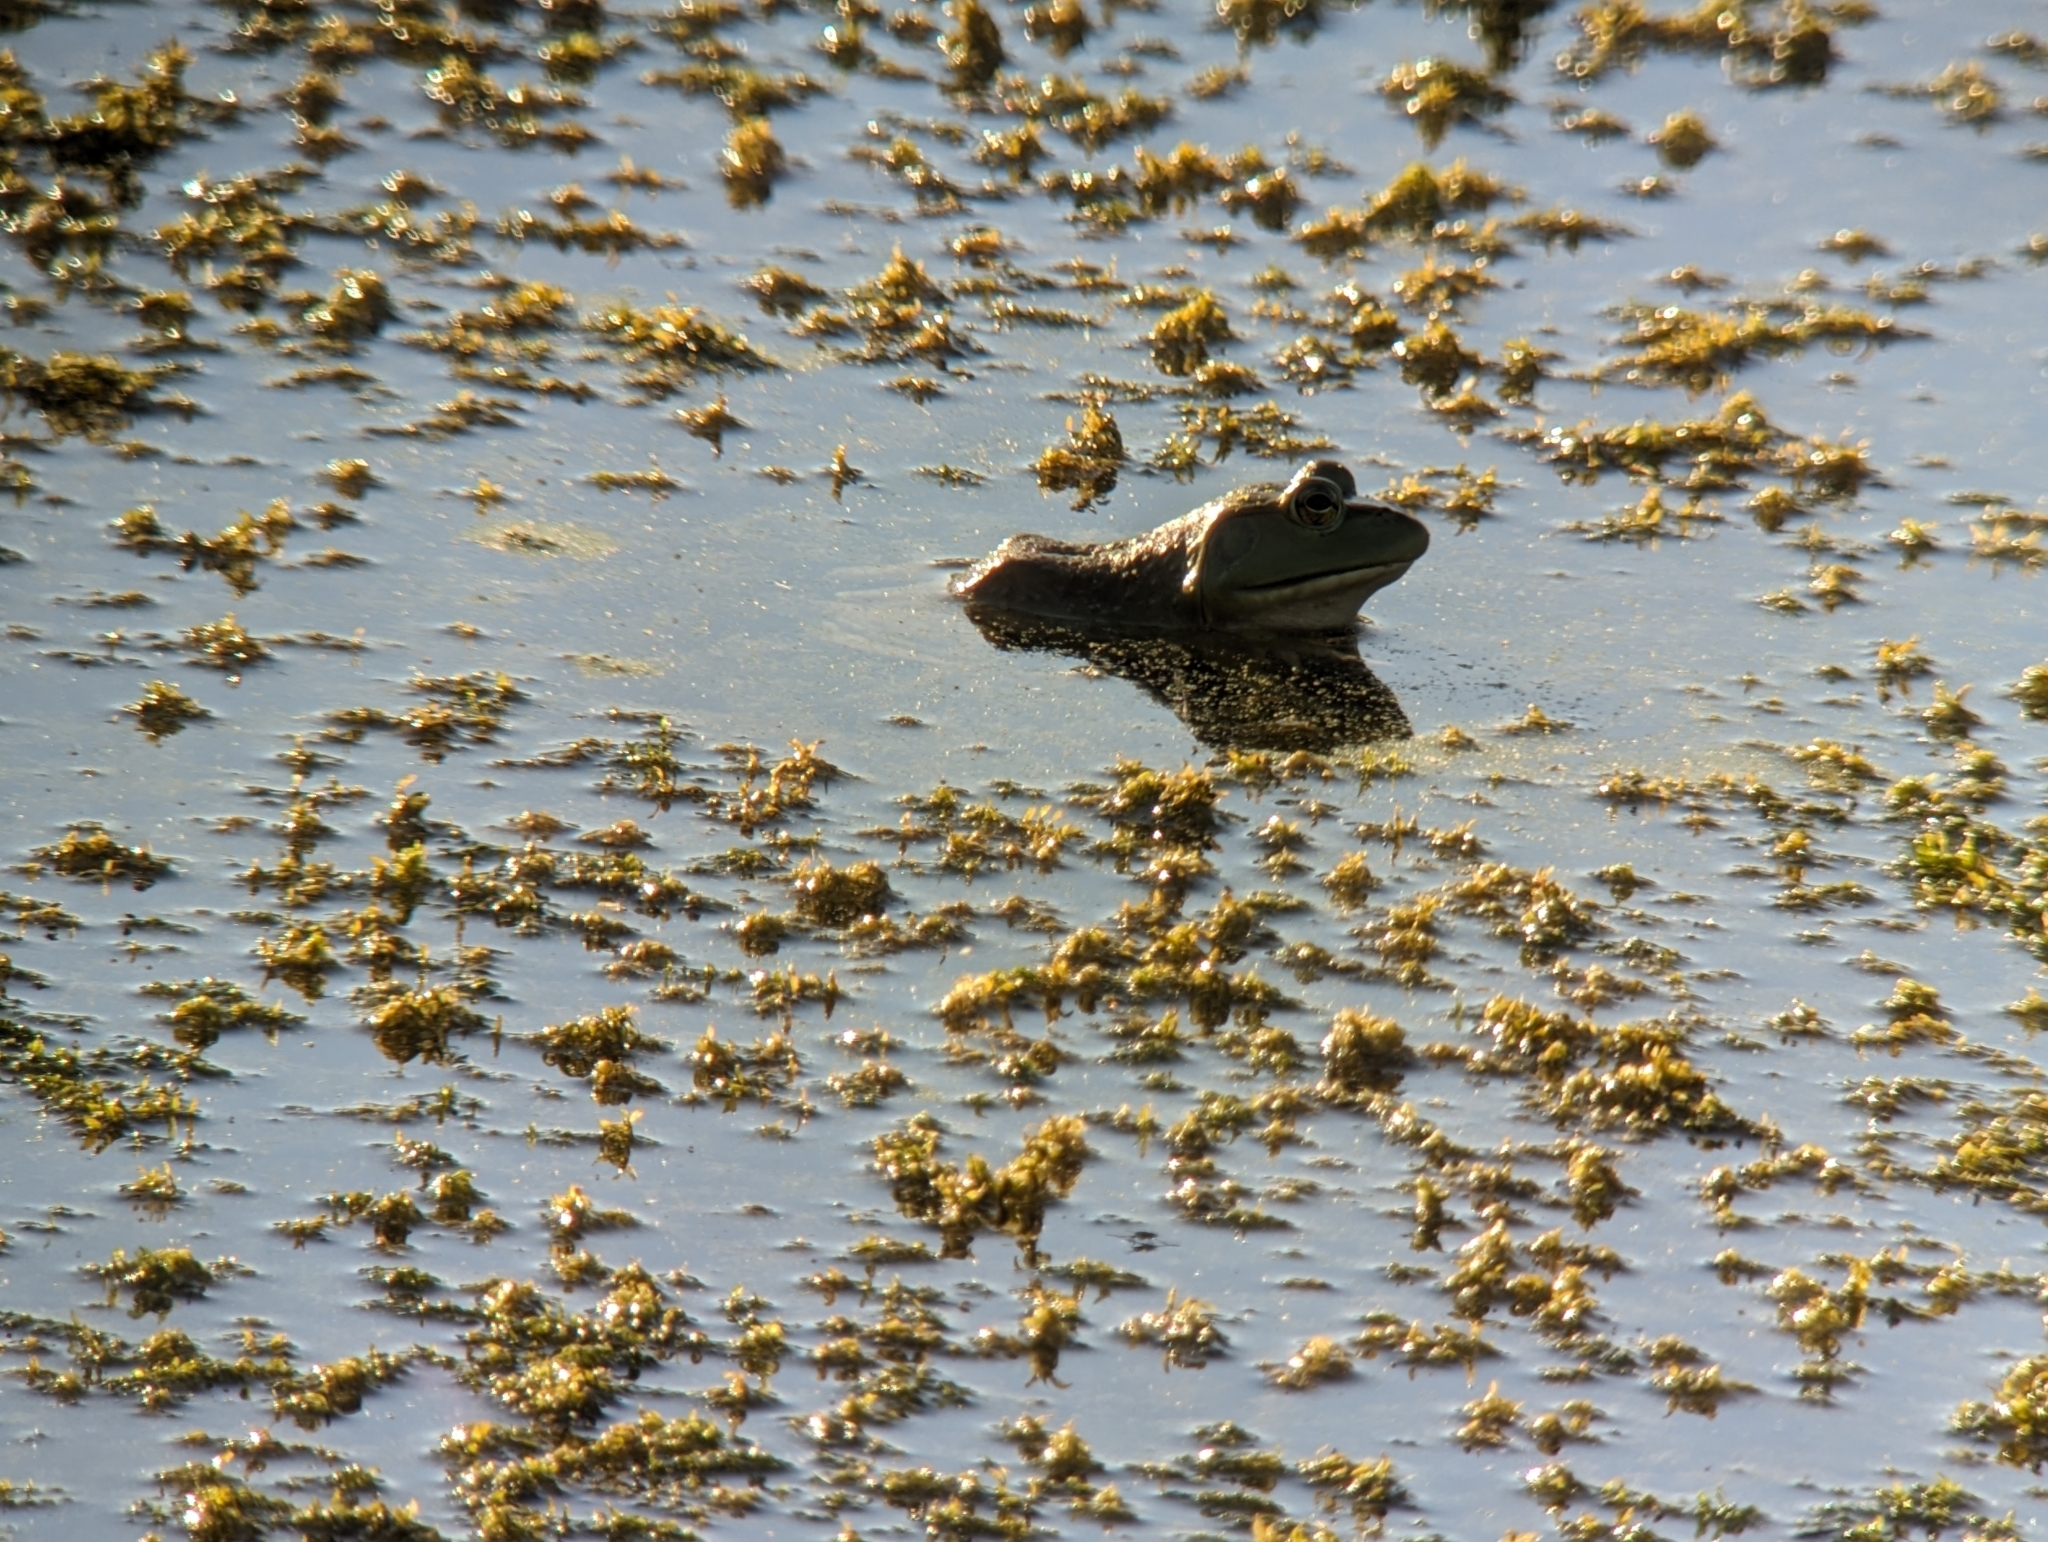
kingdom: Animalia
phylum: Chordata
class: Amphibia
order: Anura
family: Ranidae
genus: Lithobates
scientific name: Lithobates catesbeianus
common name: American bullfrog
